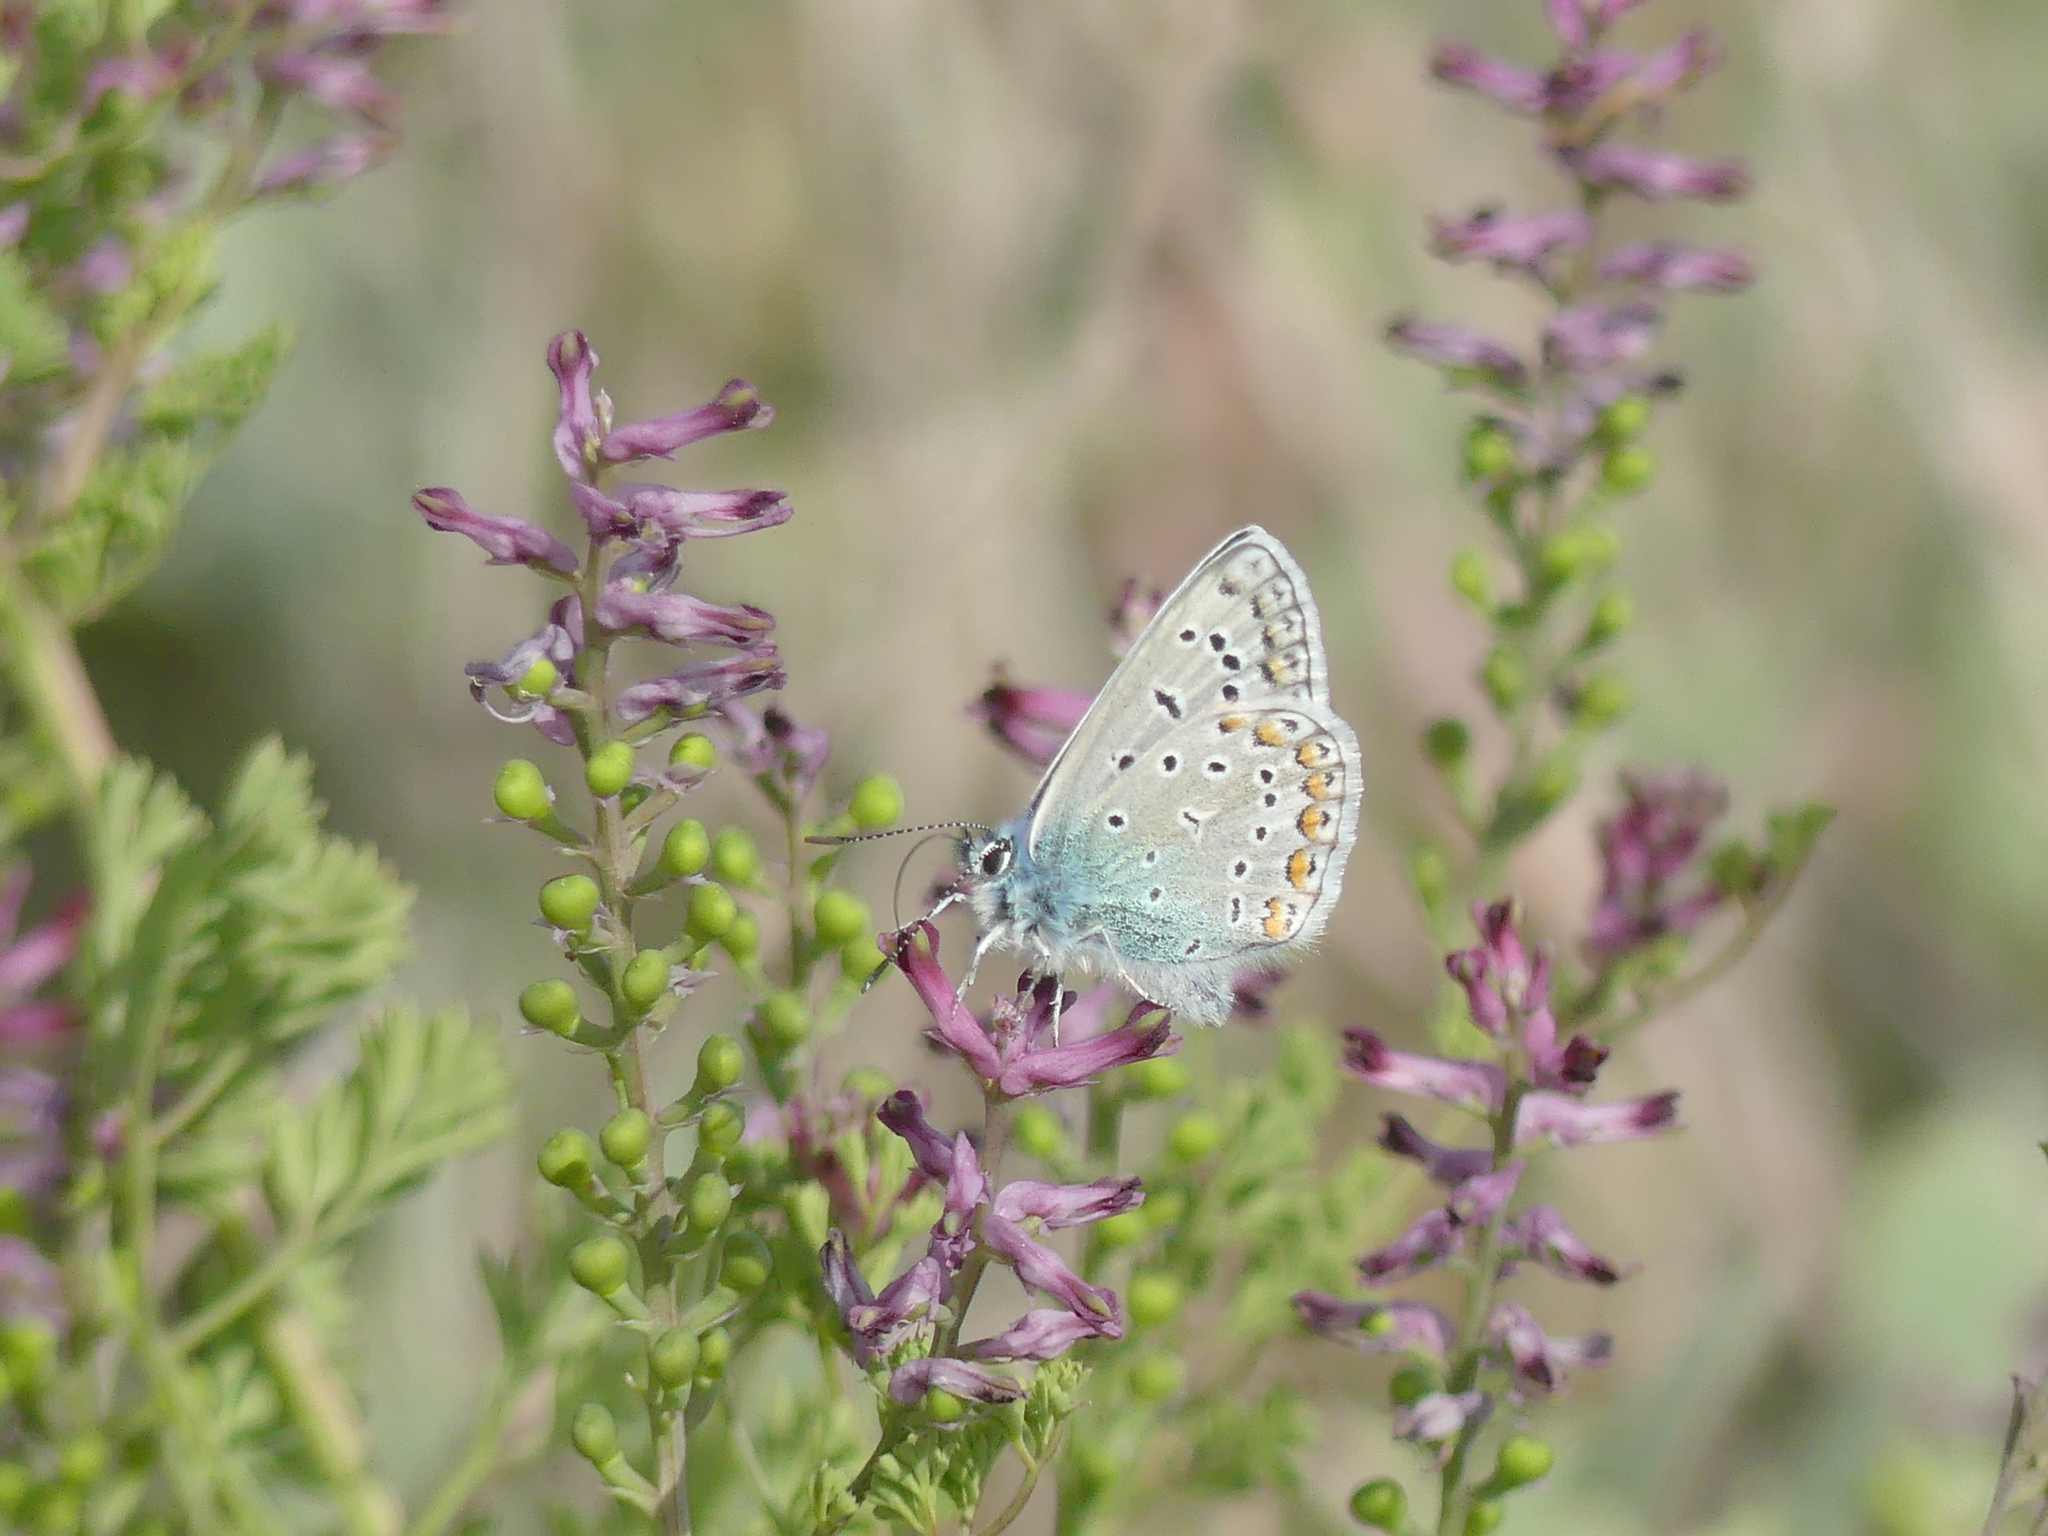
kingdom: Animalia
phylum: Arthropoda
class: Insecta
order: Lepidoptera
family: Lycaenidae
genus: Polyommatus
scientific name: Polyommatus icarus
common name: Common blue
